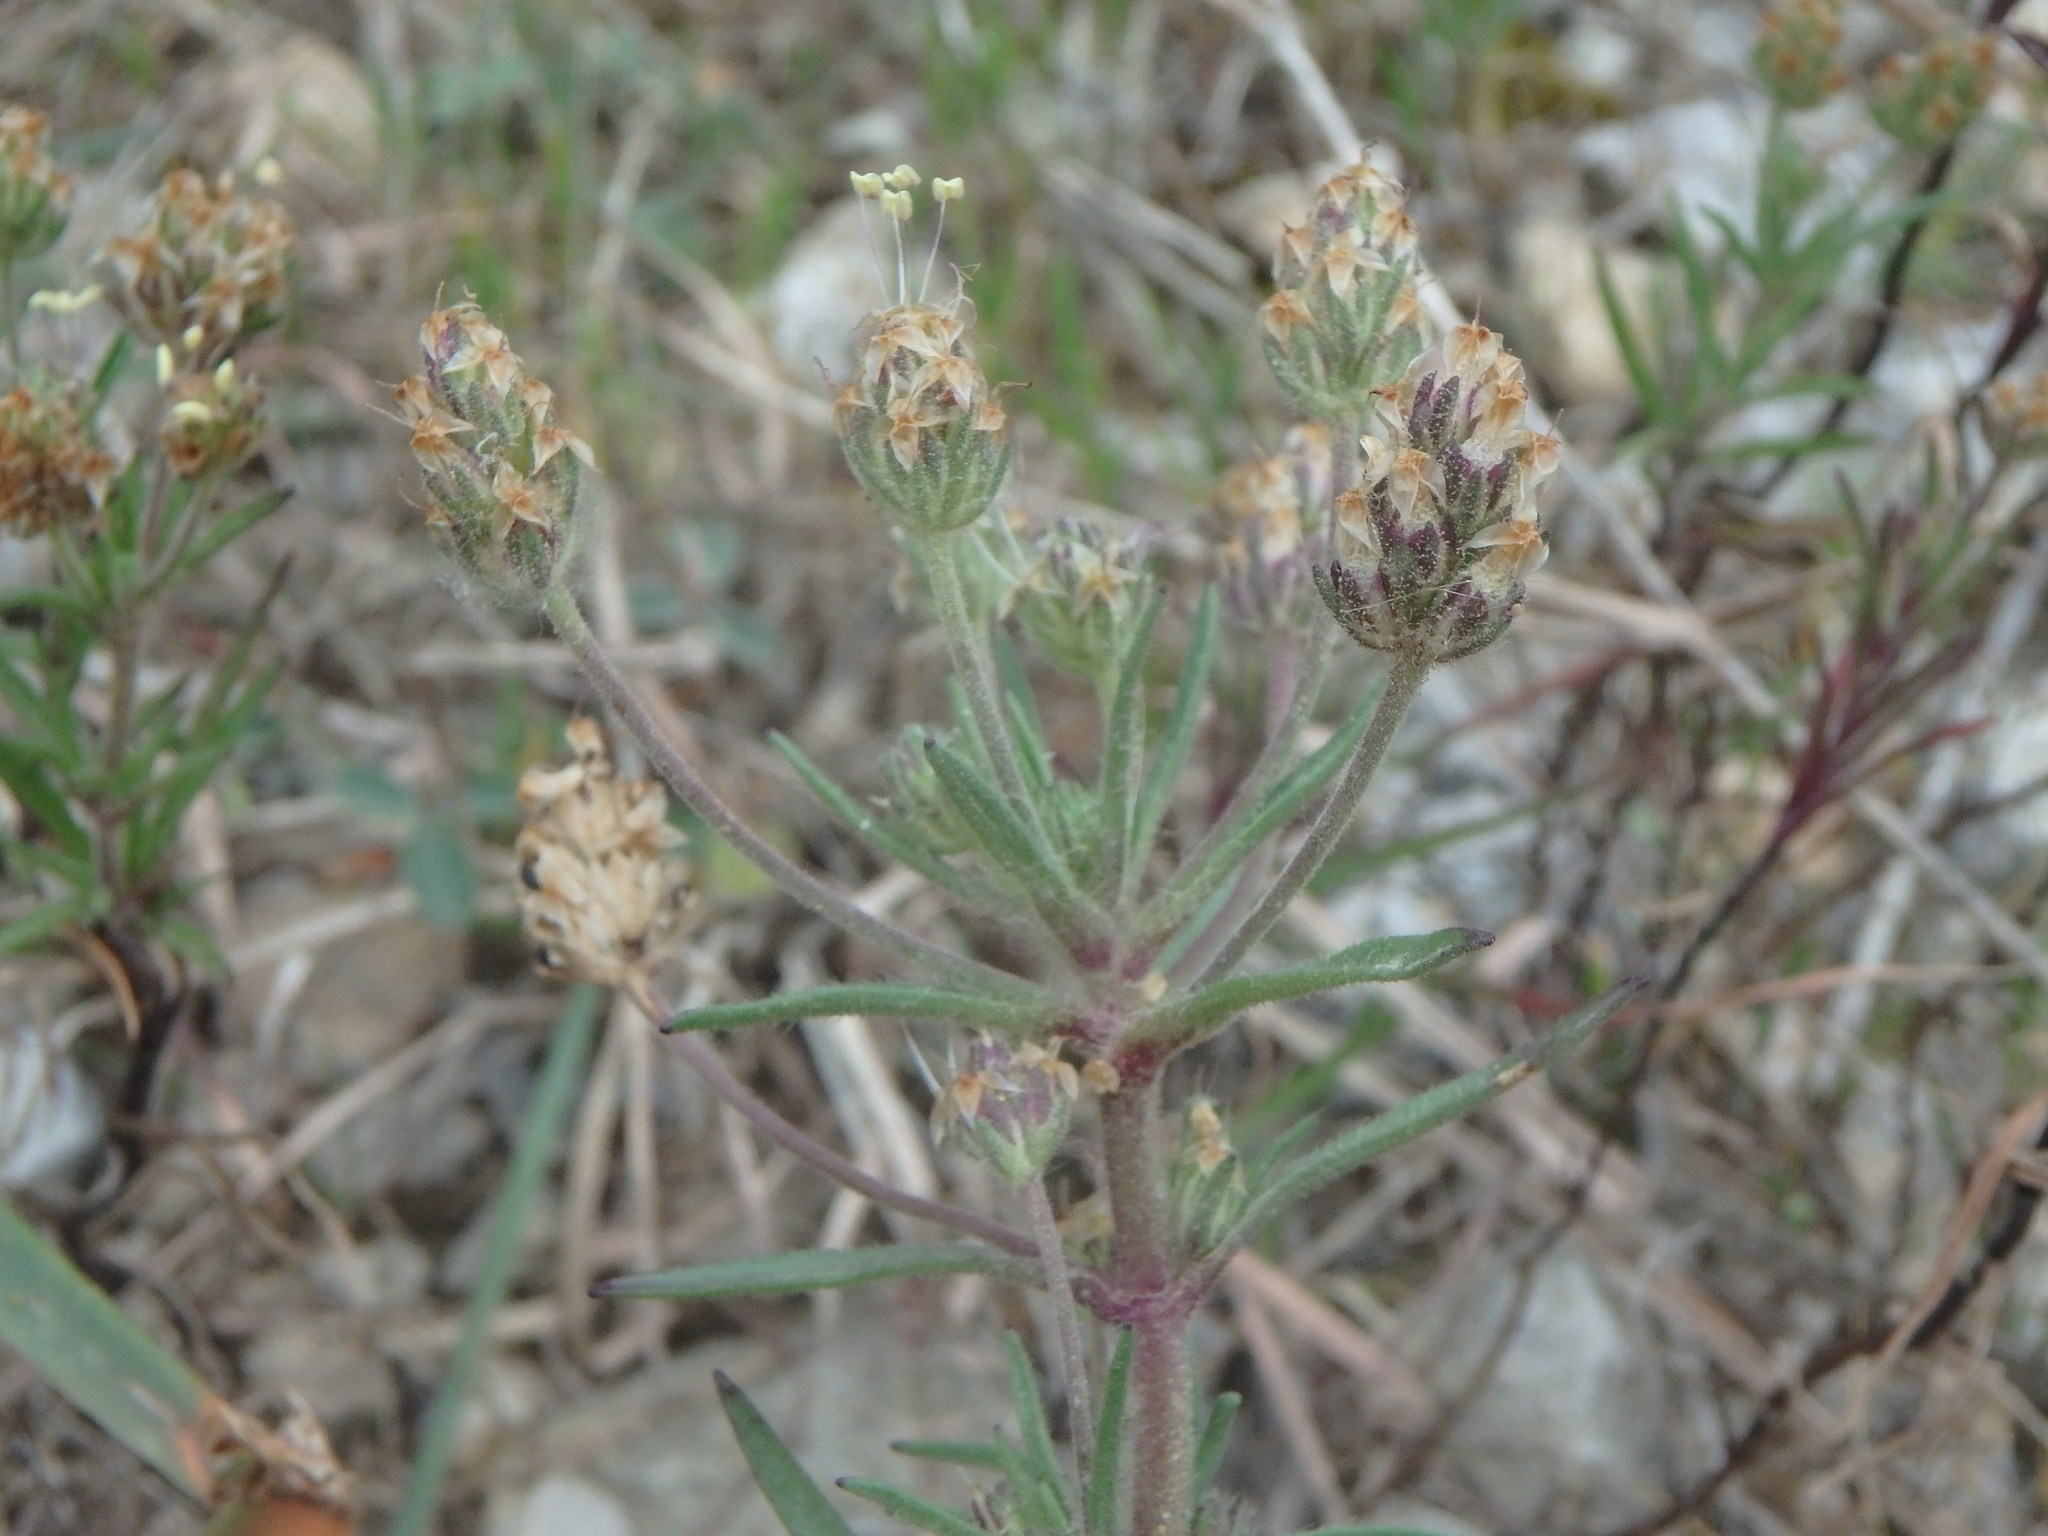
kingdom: Plantae
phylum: Tracheophyta
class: Magnoliopsida
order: Lamiales
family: Plantaginaceae
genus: Plantago
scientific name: Plantago afra
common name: Glandular plantain
